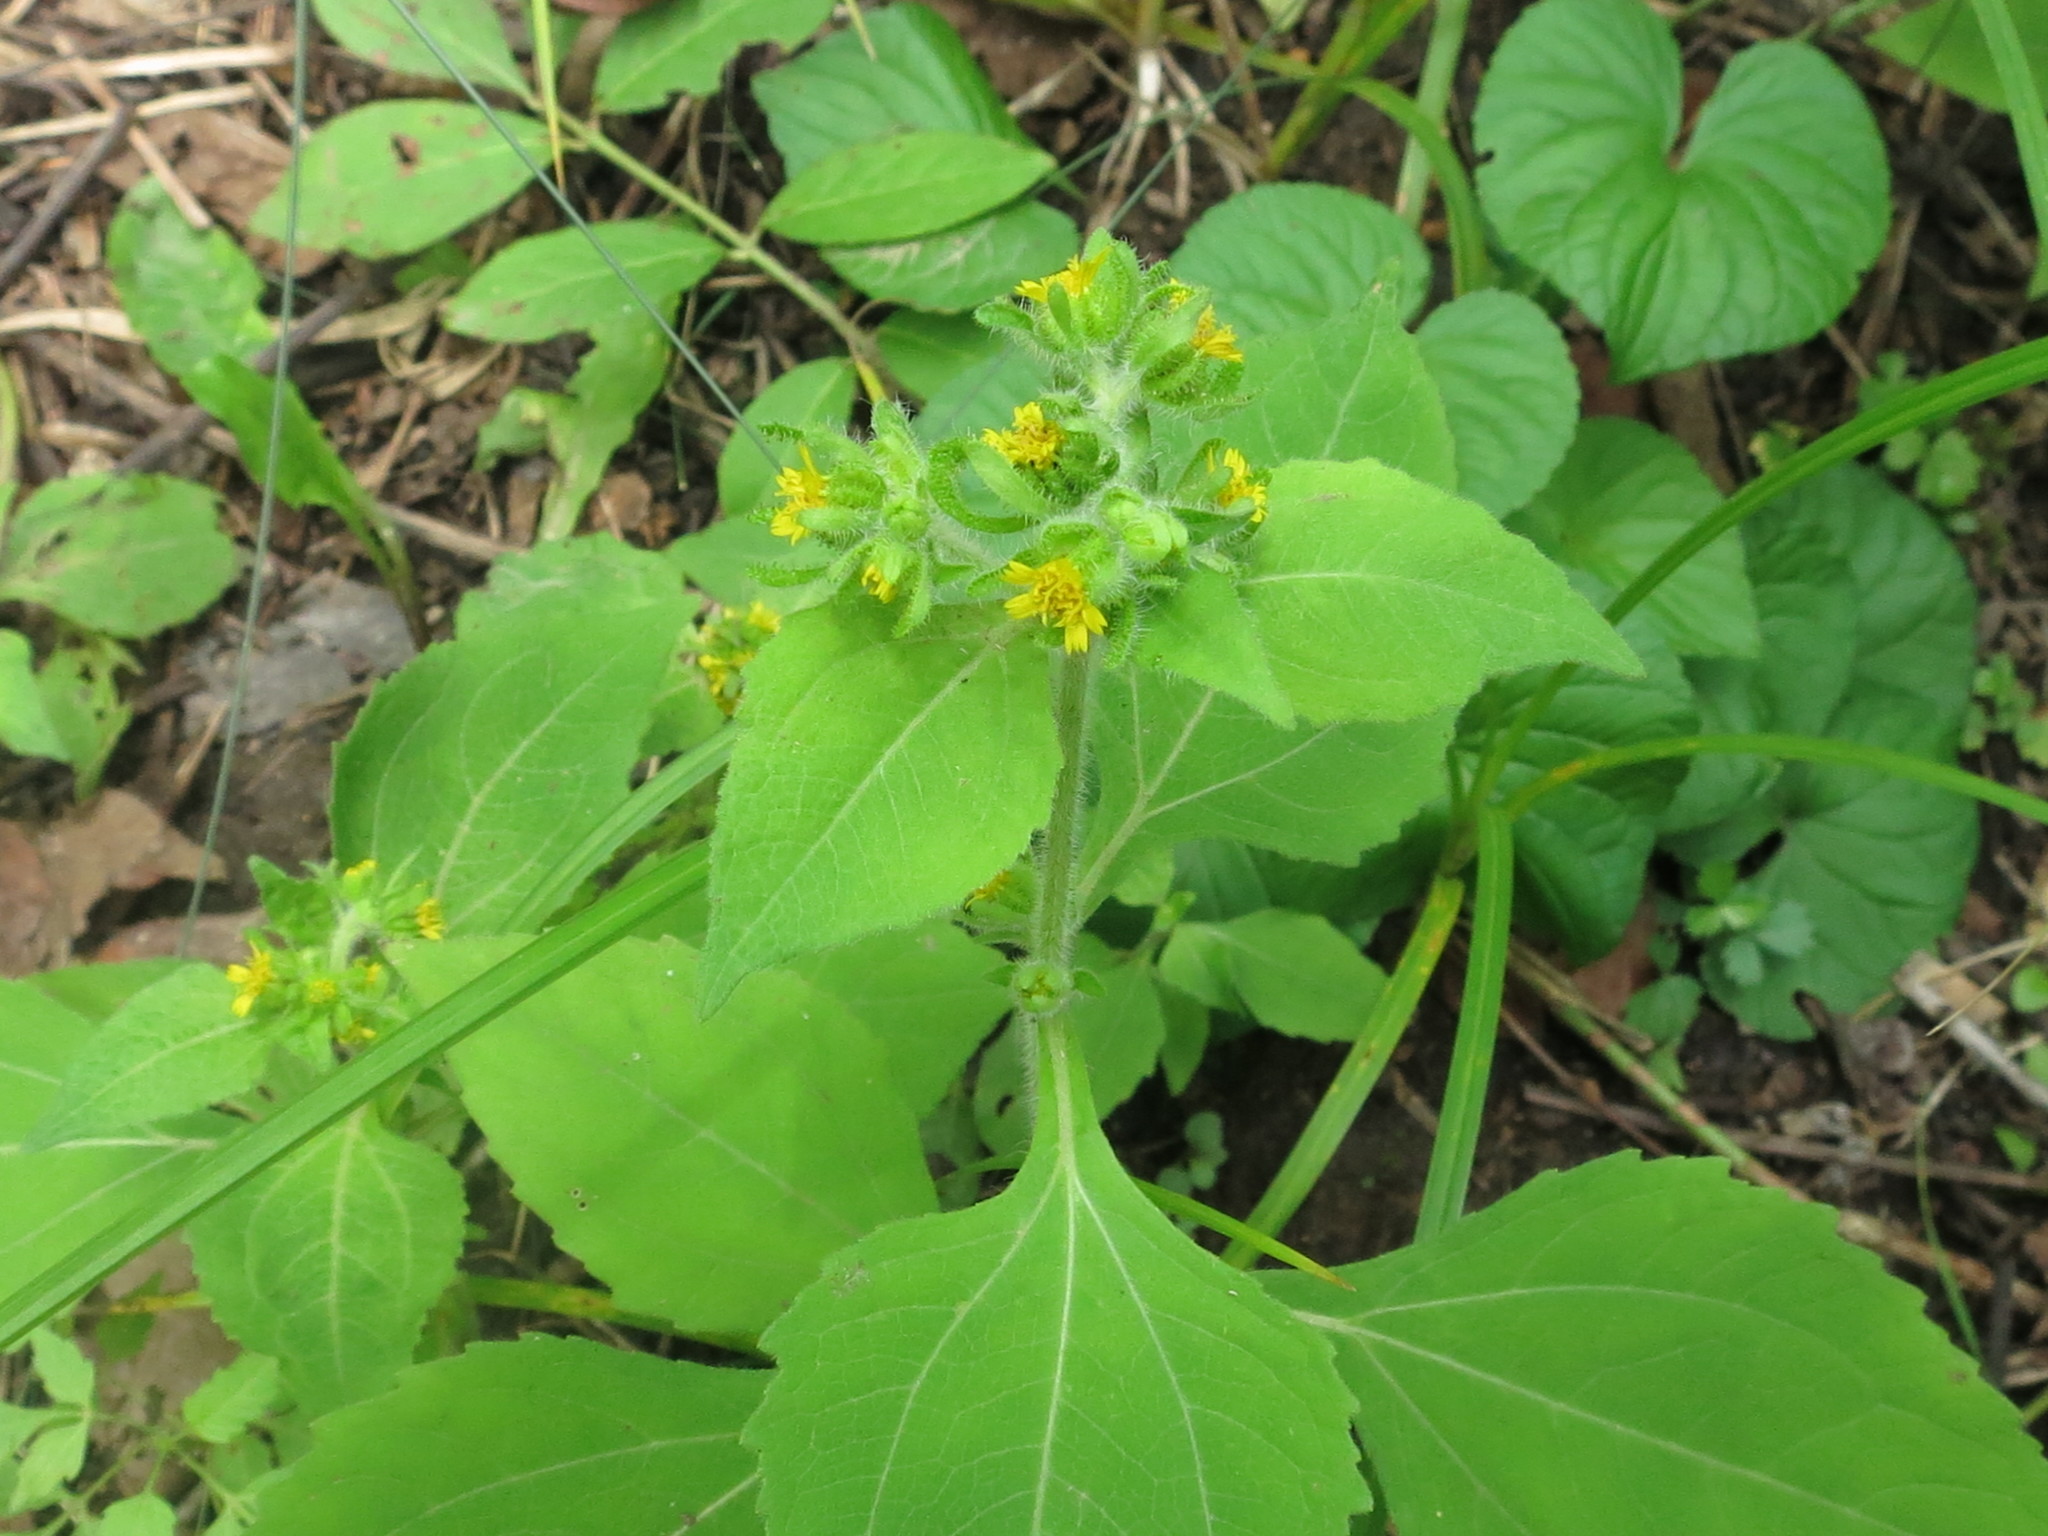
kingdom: Plantae
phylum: Tracheophyta
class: Magnoliopsida
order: Asterales
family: Asteraceae
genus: Sigesbeckia
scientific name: Sigesbeckia orientalis
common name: Eastern st paul's-wort
